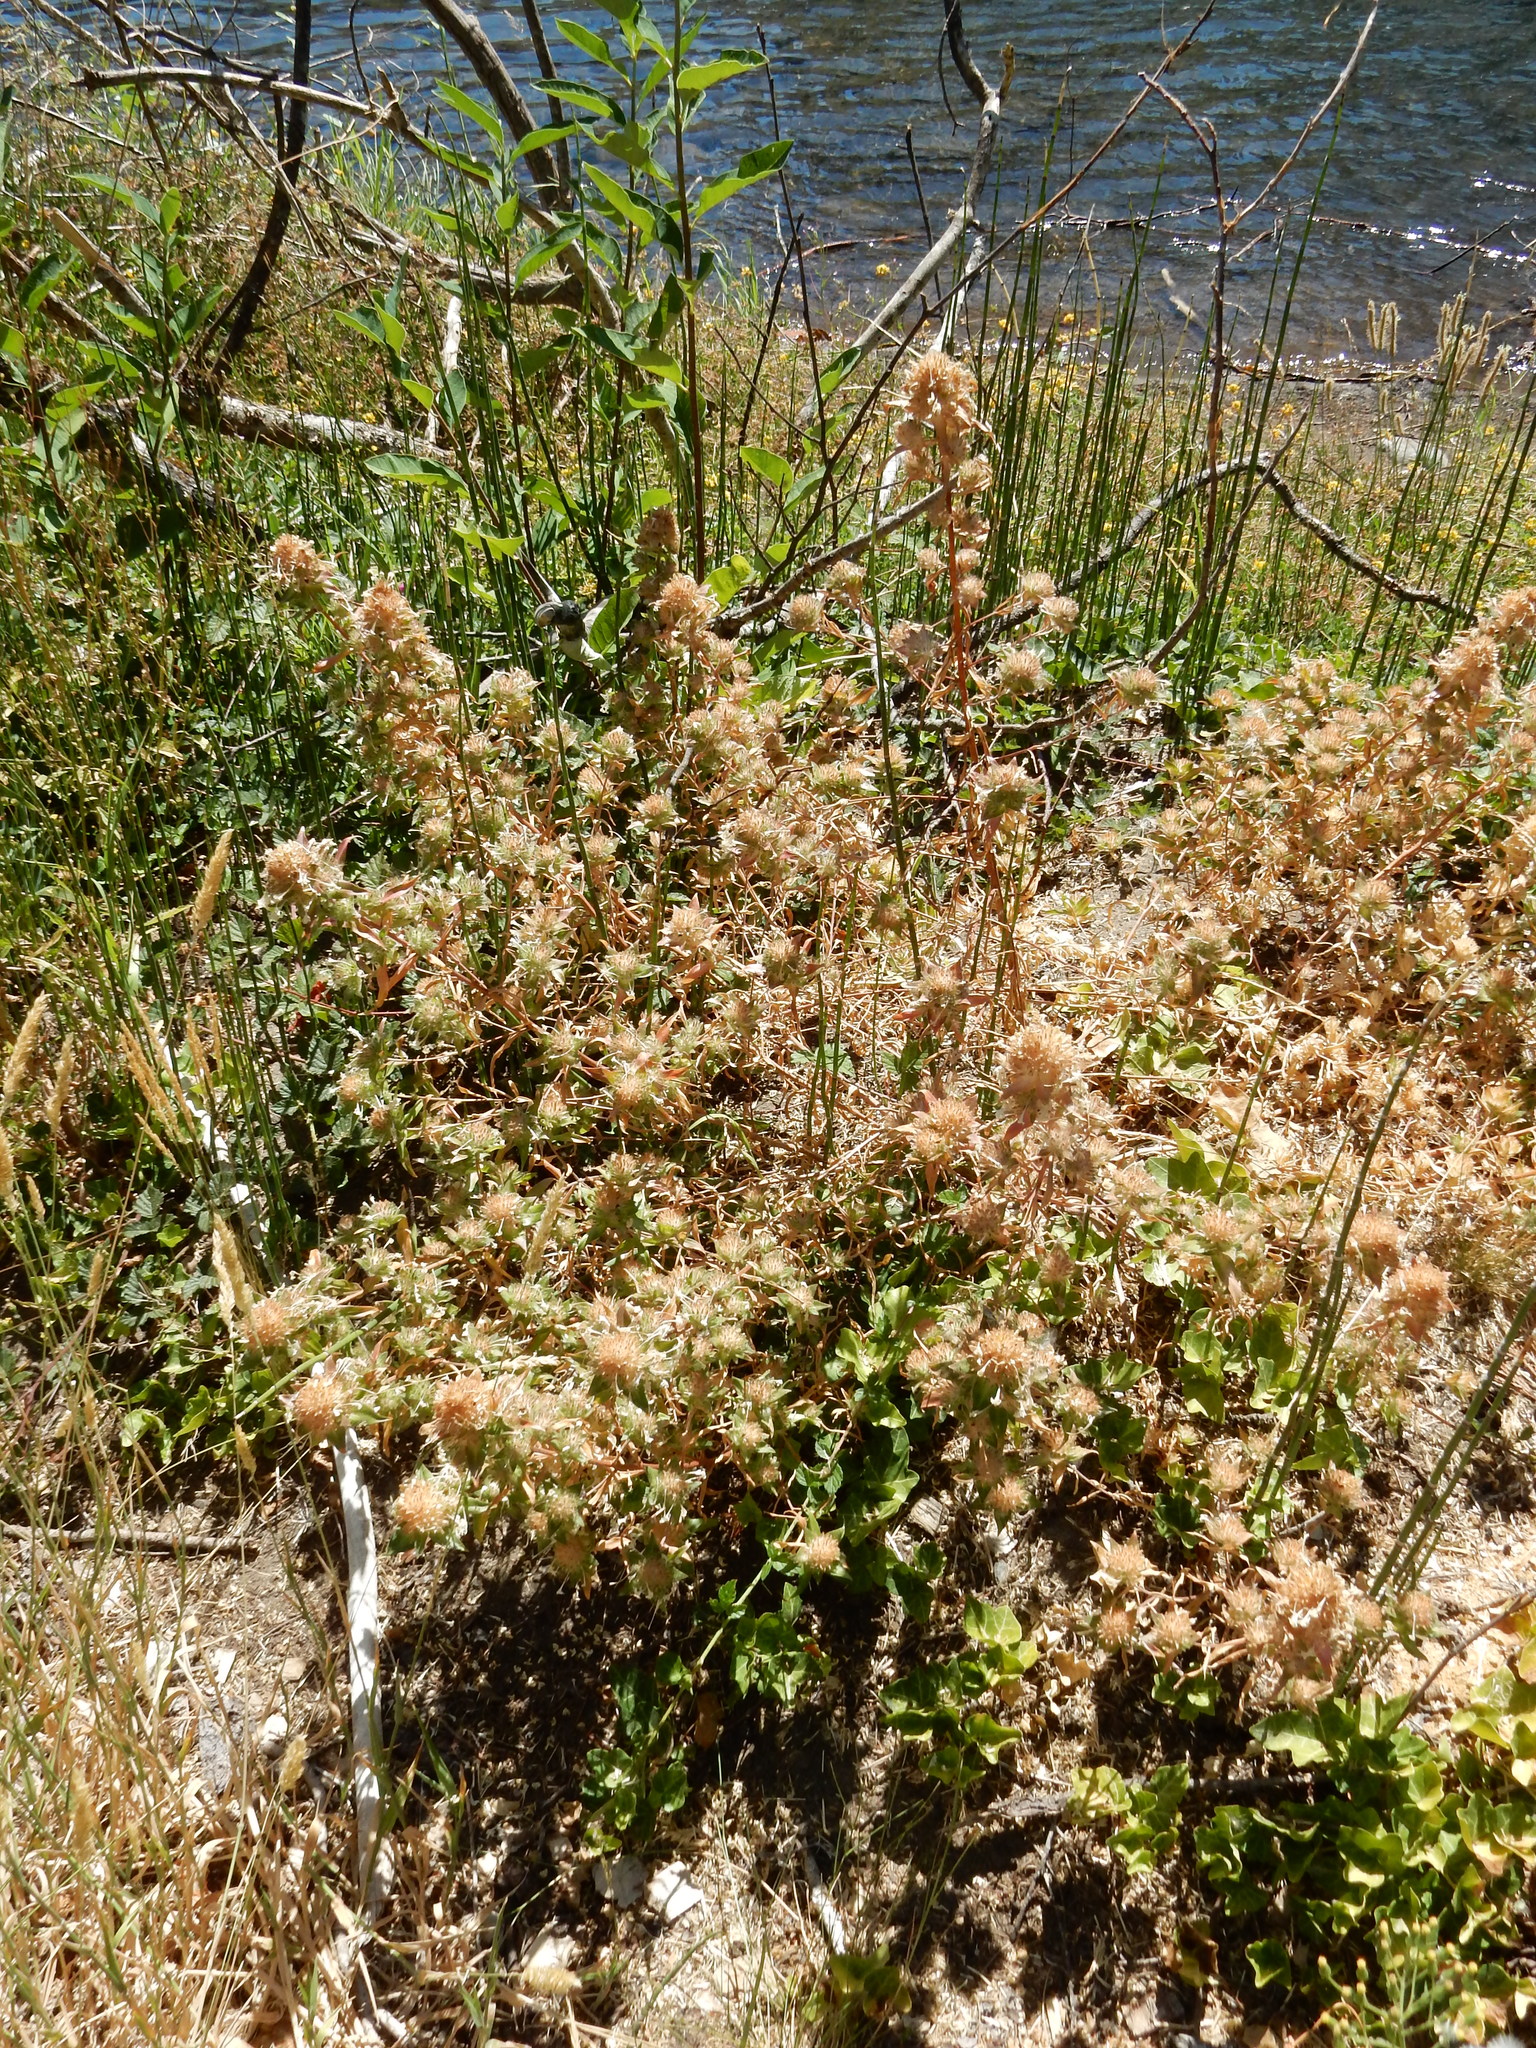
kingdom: Plantae
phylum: Tracheophyta
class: Magnoliopsida
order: Ericales
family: Polemoniaceae
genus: Collomia
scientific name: Collomia grandiflora
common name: California strawflower
